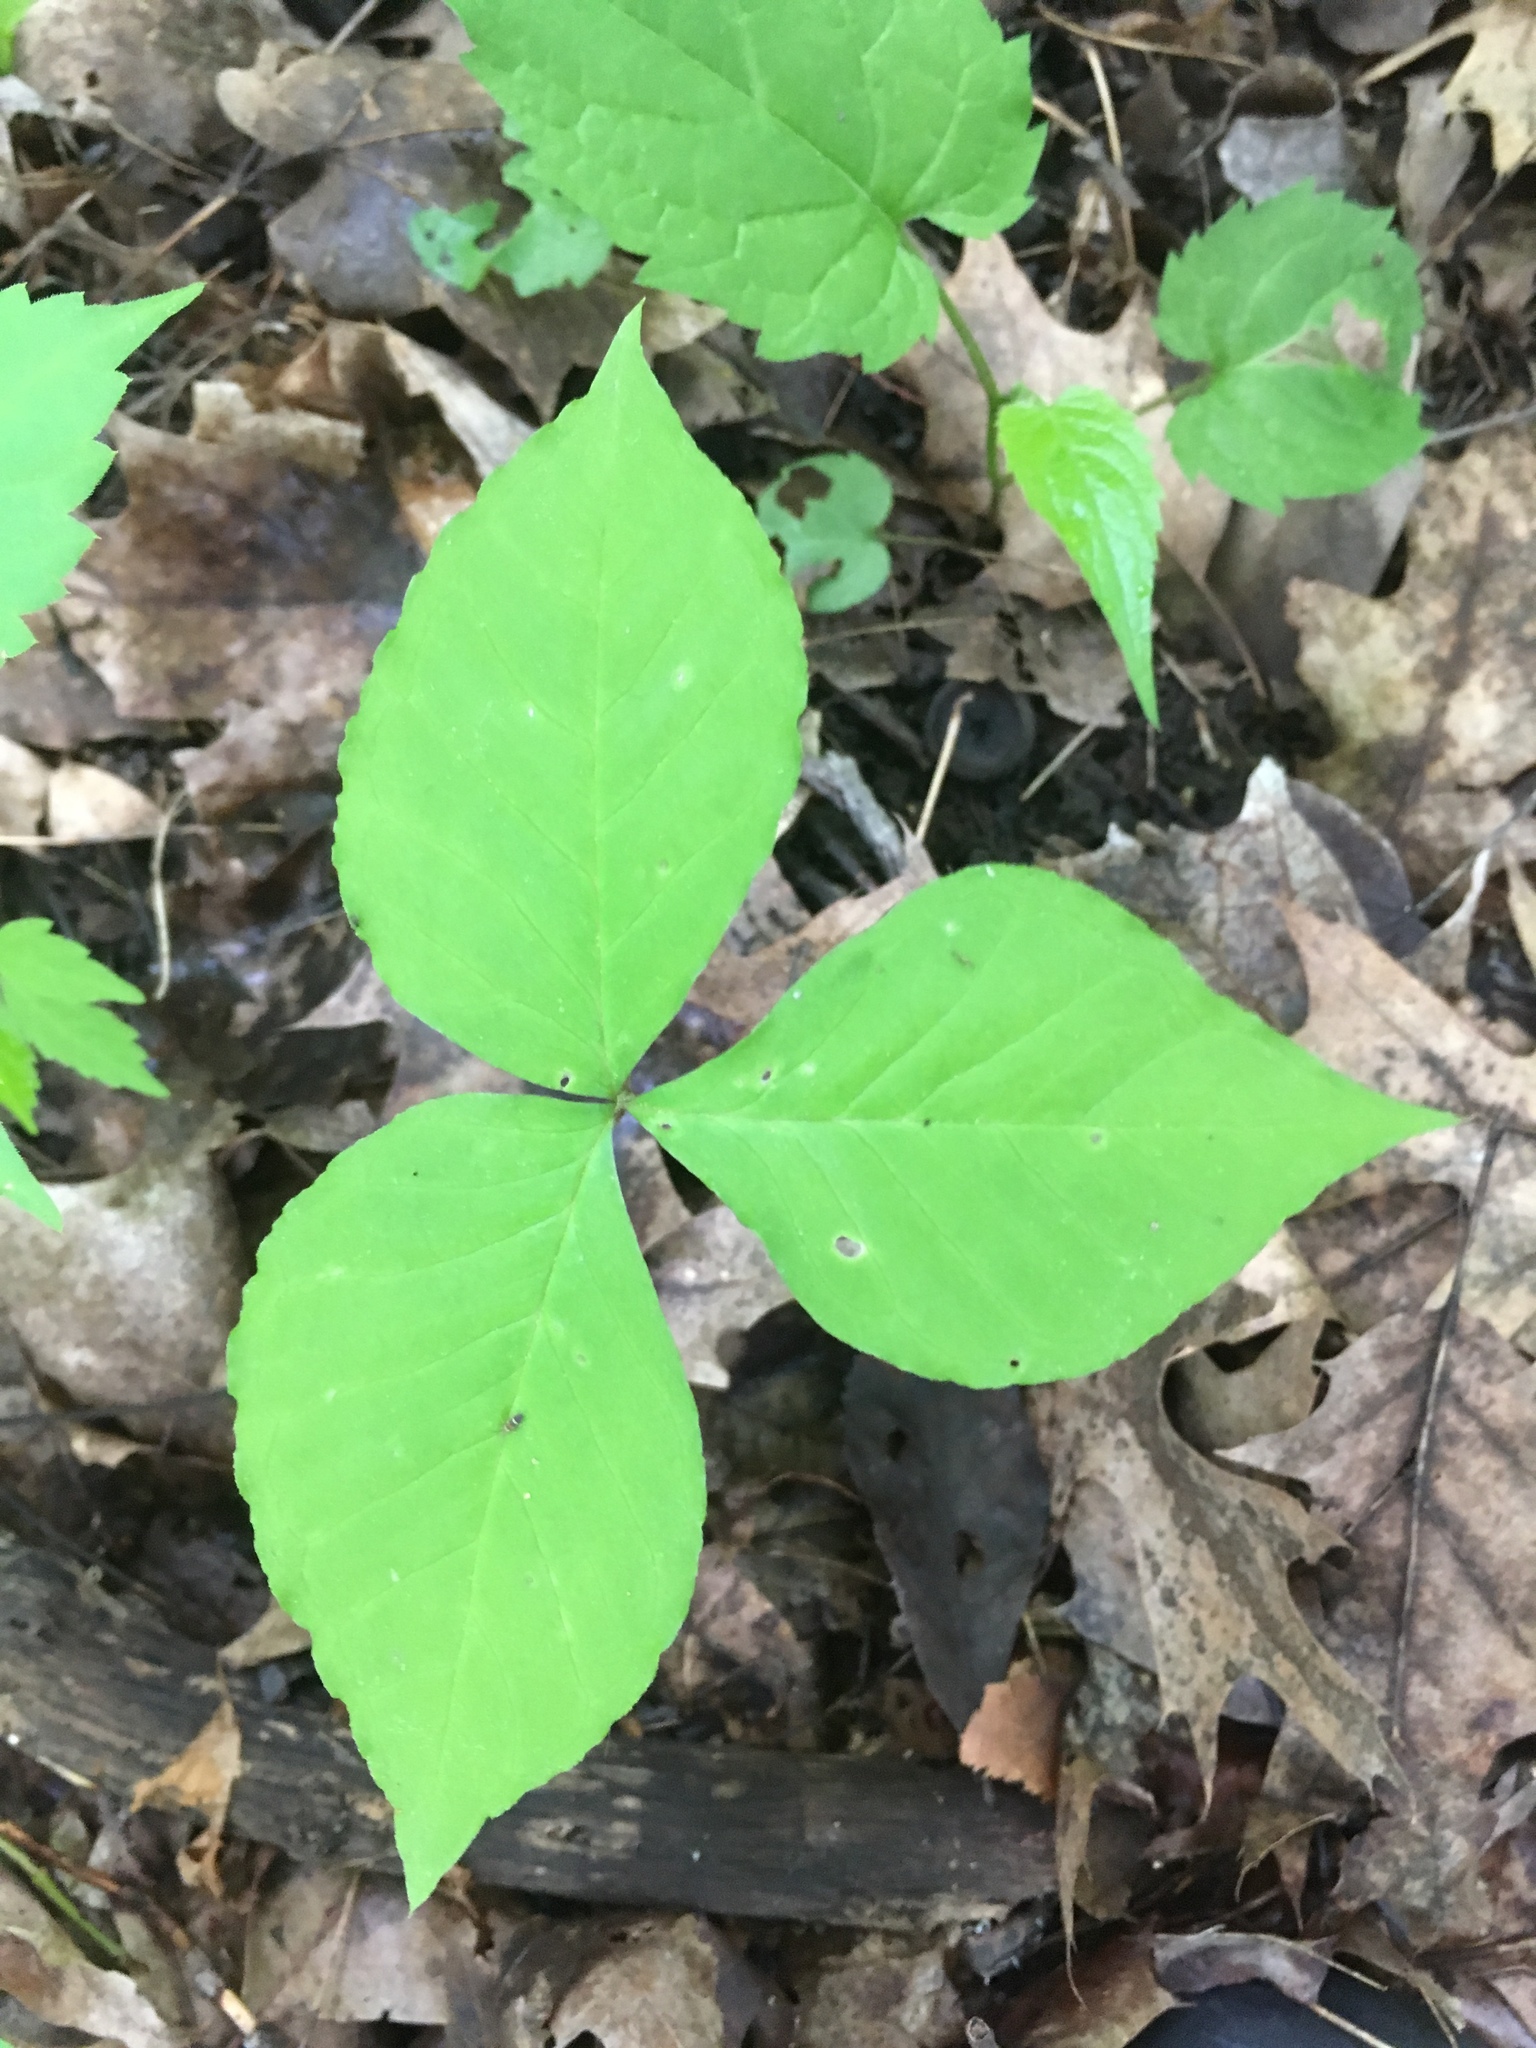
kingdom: Plantae
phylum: Tracheophyta
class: Liliopsida
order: Alismatales
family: Araceae
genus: Arisaema
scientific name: Arisaema triphyllum
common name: Jack-in-the-pulpit
